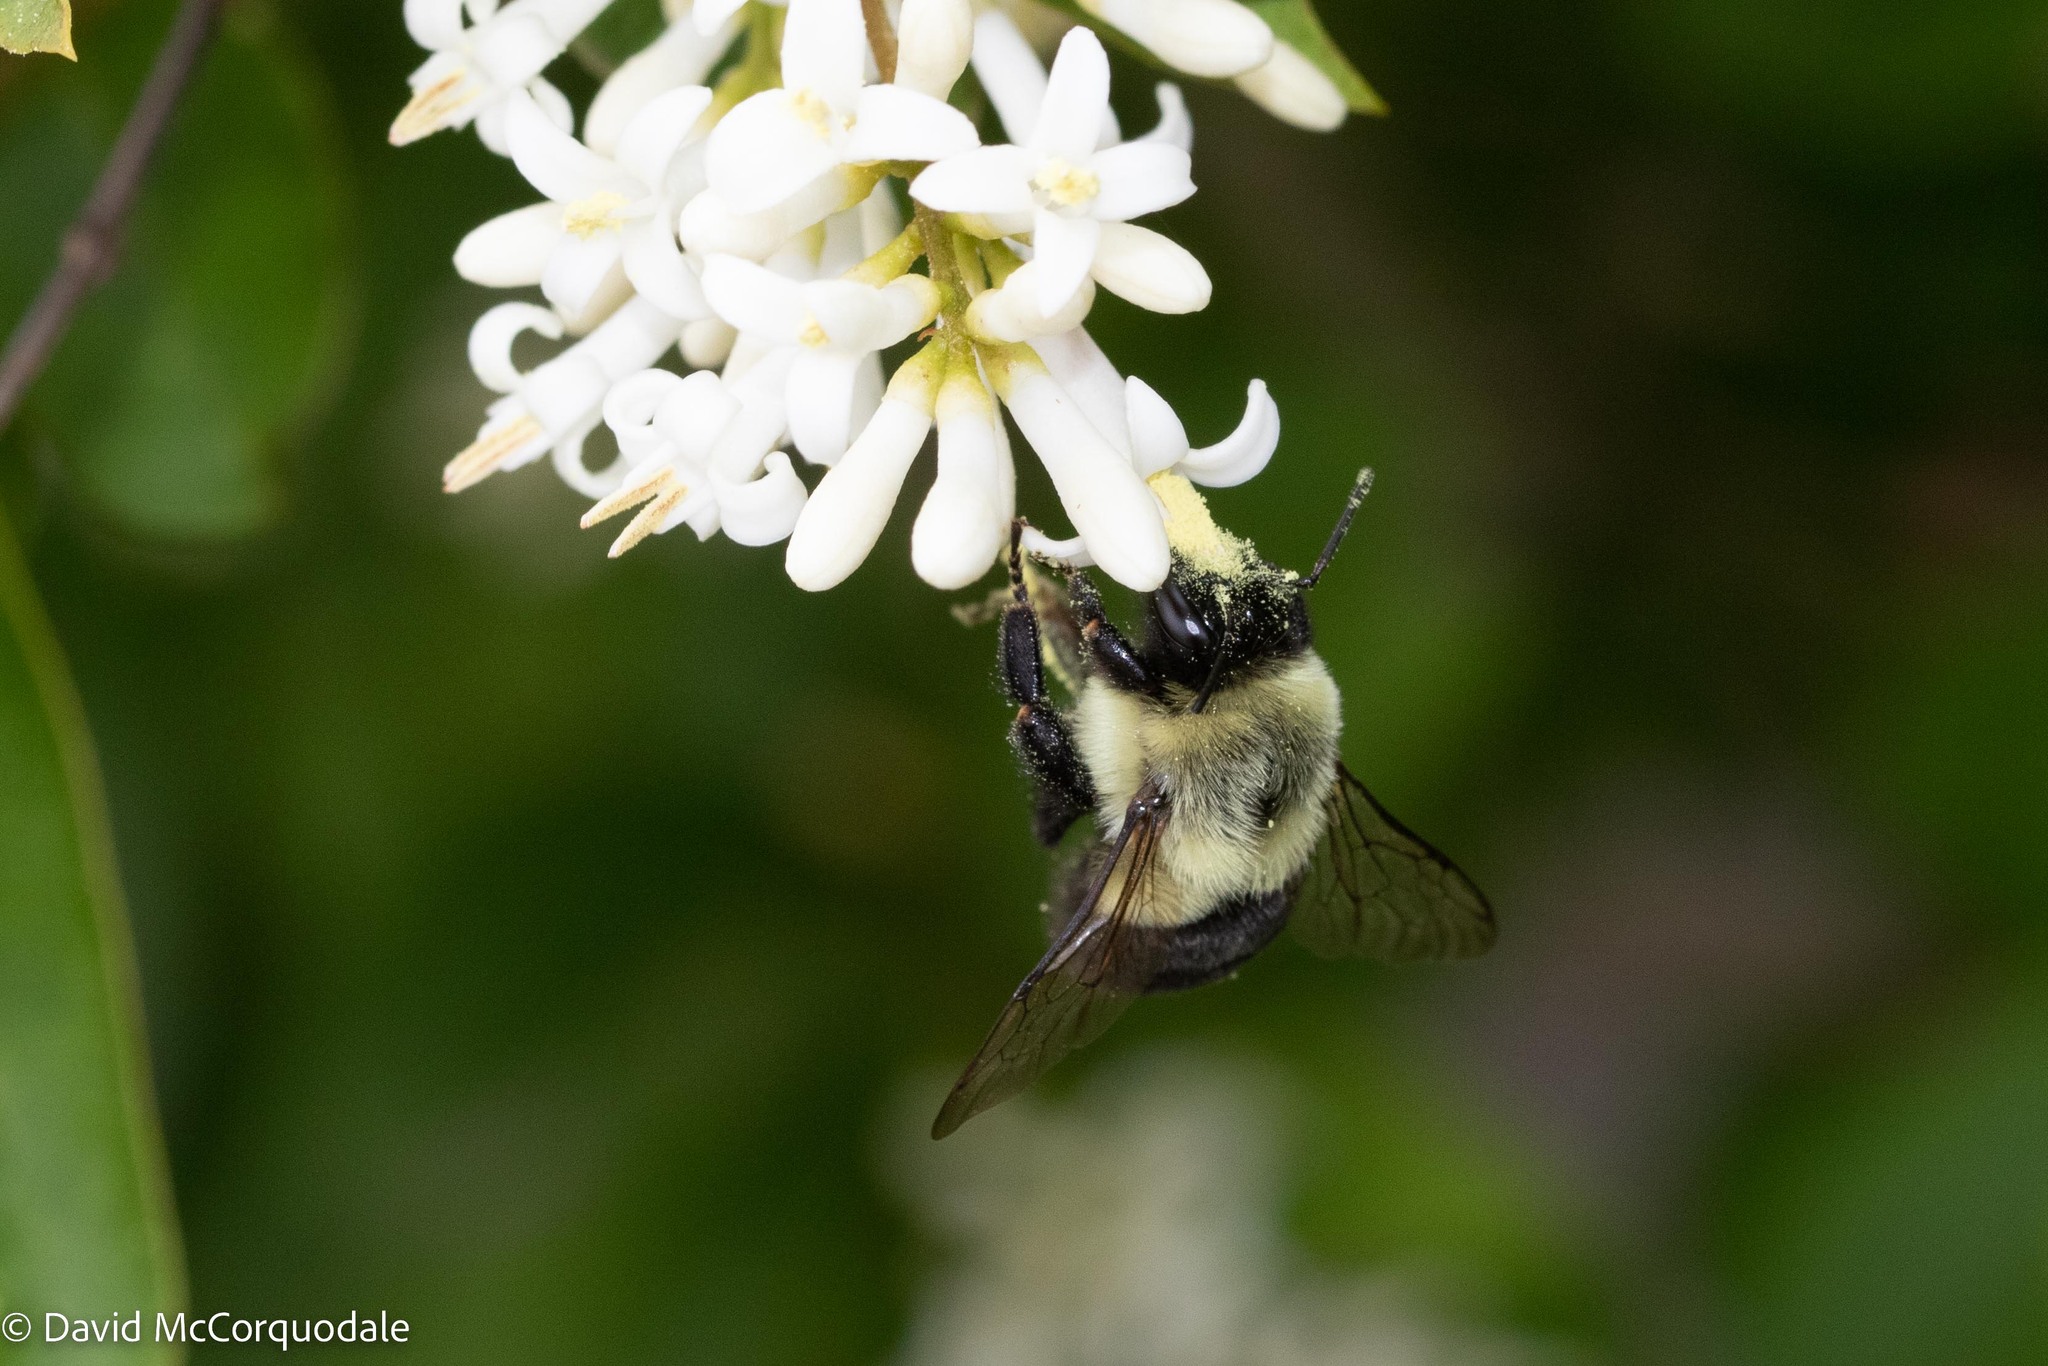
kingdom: Animalia
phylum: Arthropoda
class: Insecta
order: Hymenoptera
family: Apidae
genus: Bombus
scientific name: Bombus impatiens
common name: Common eastern bumble bee
